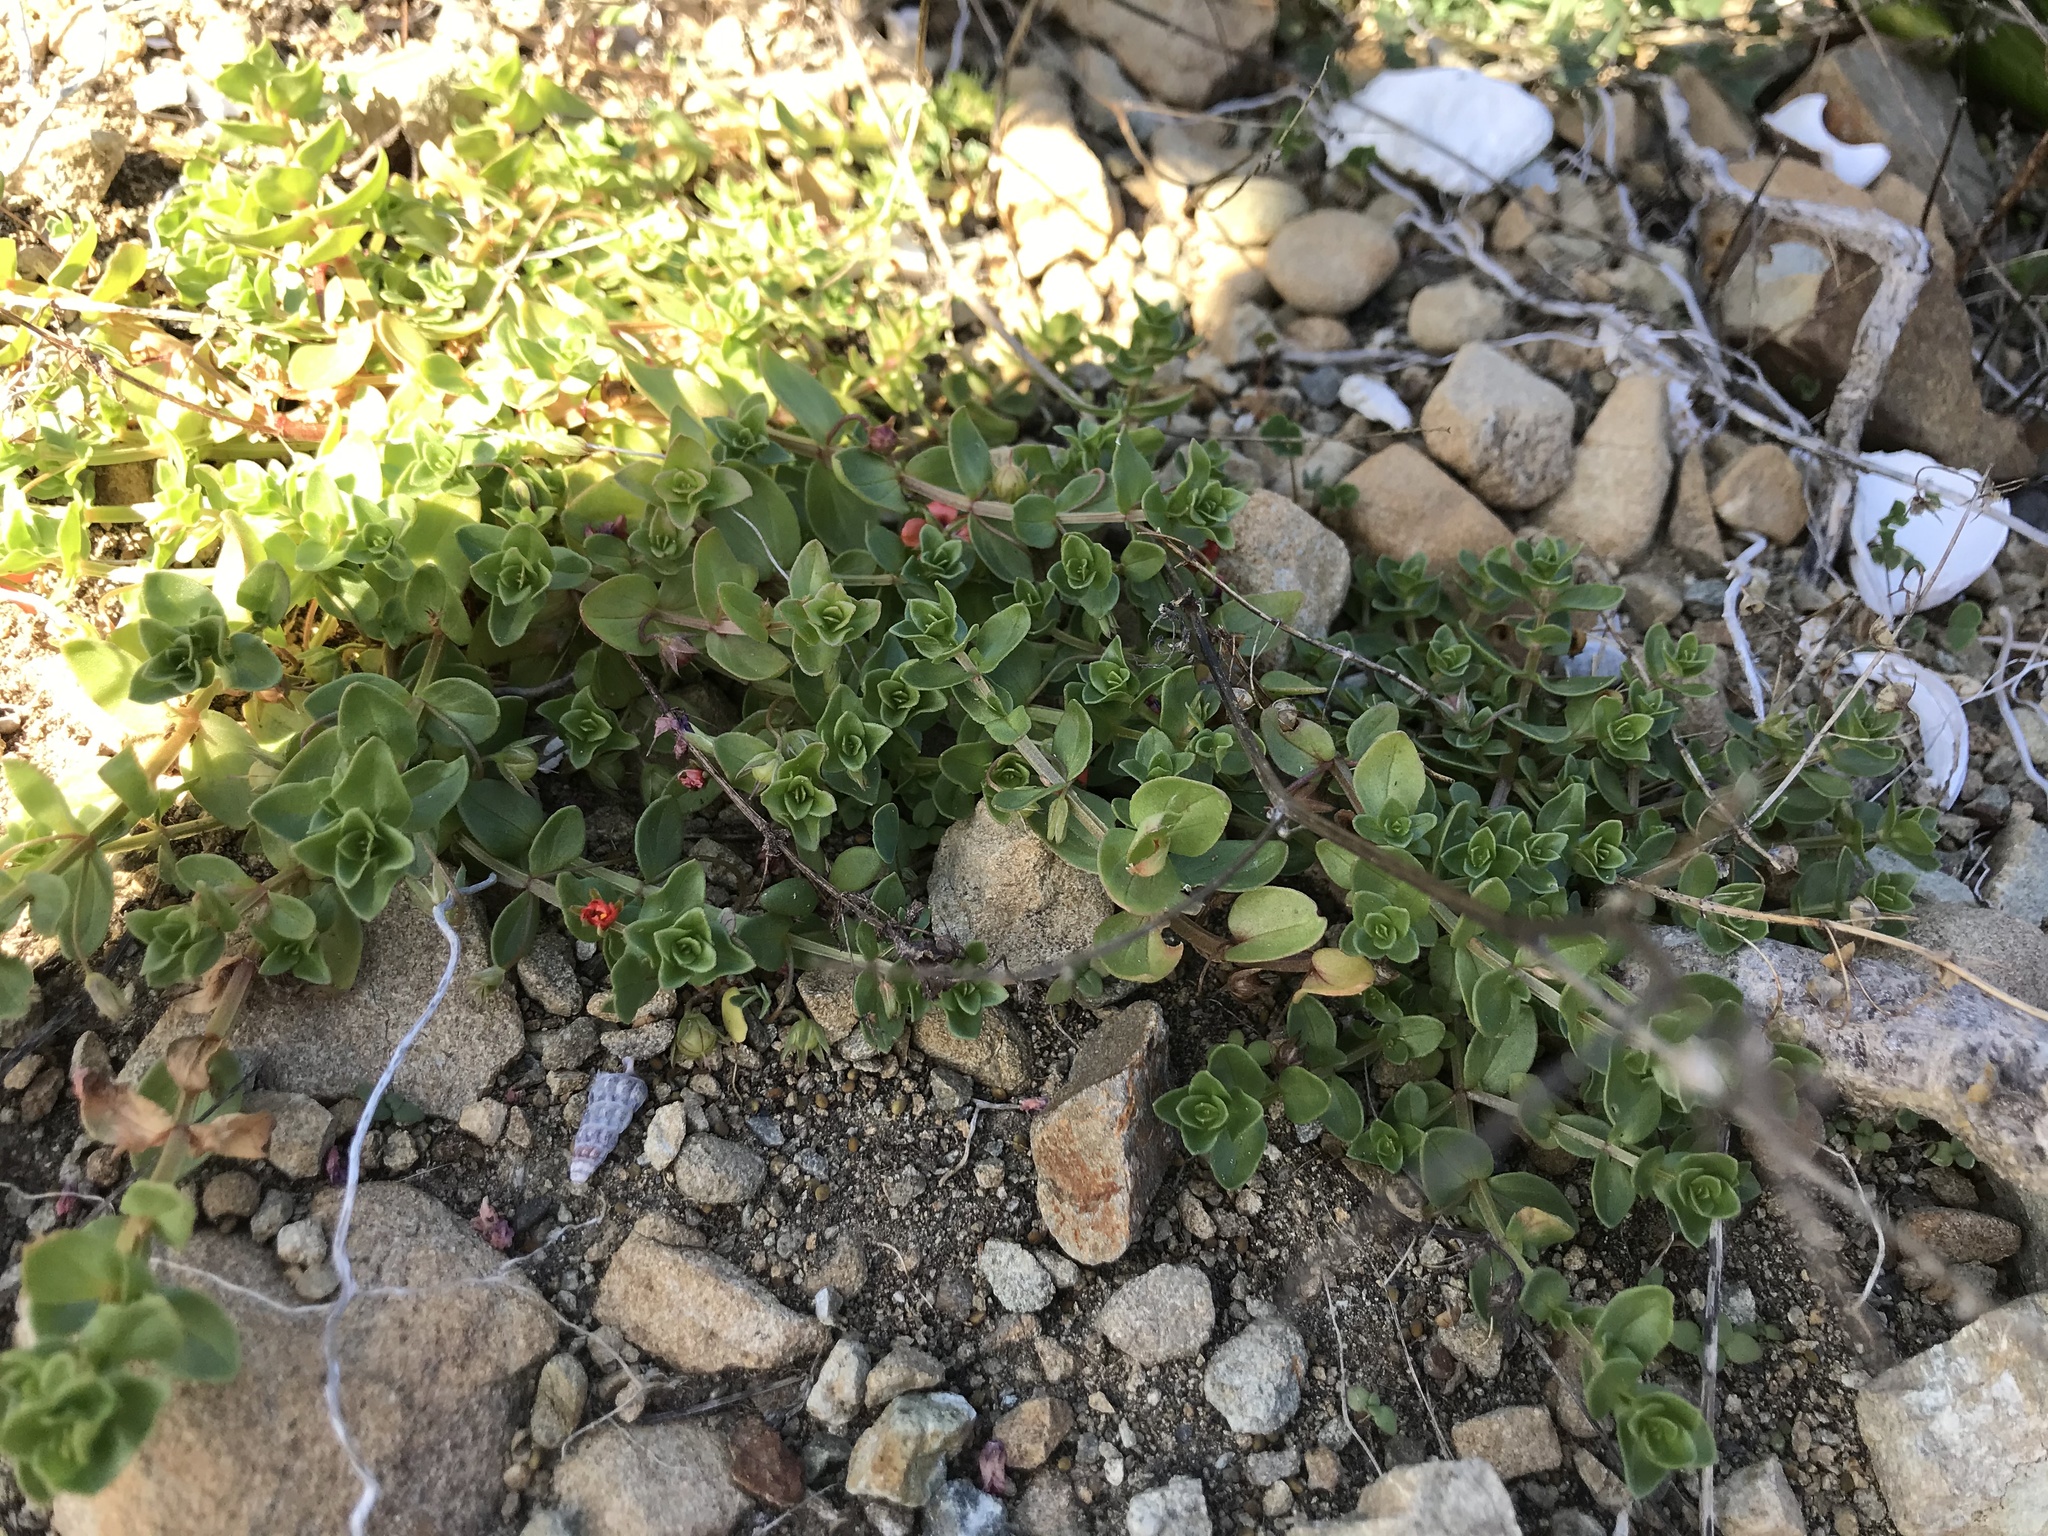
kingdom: Plantae
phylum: Tracheophyta
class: Magnoliopsida
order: Ericales
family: Primulaceae
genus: Lysimachia
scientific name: Lysimachia arvensis
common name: Scarlet pimpernel
